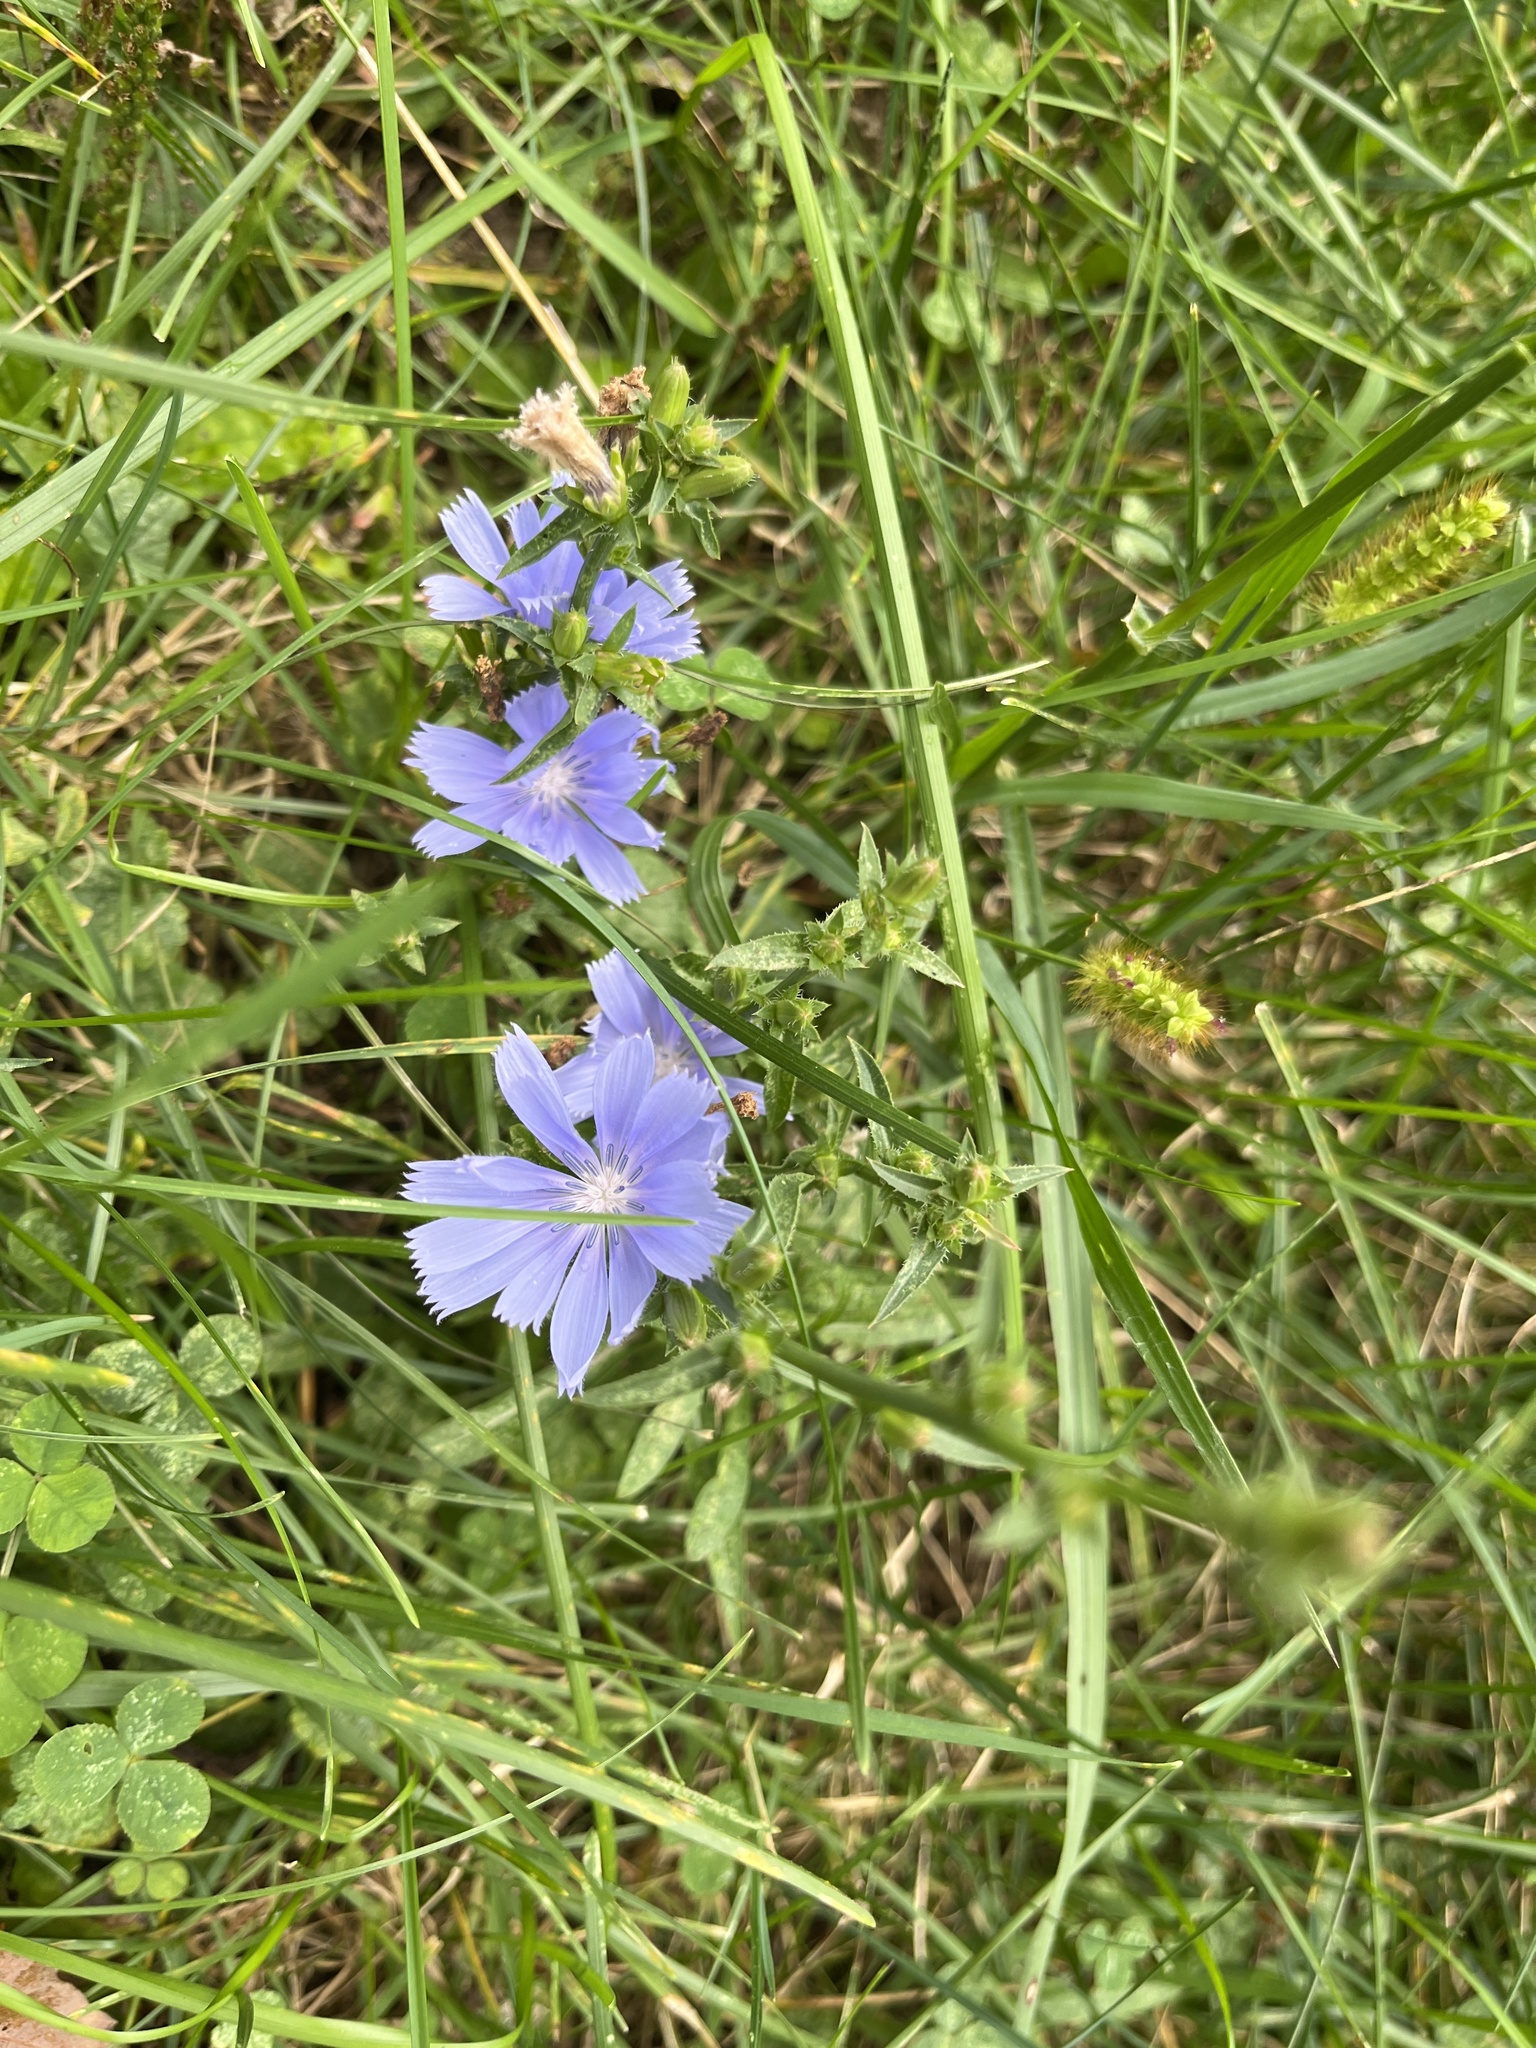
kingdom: Plantae
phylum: Tracheophyta
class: Magnoliopsida
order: Asterales
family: Asteraceae
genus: Cichorium
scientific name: Cichorium intybus
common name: Chicory
